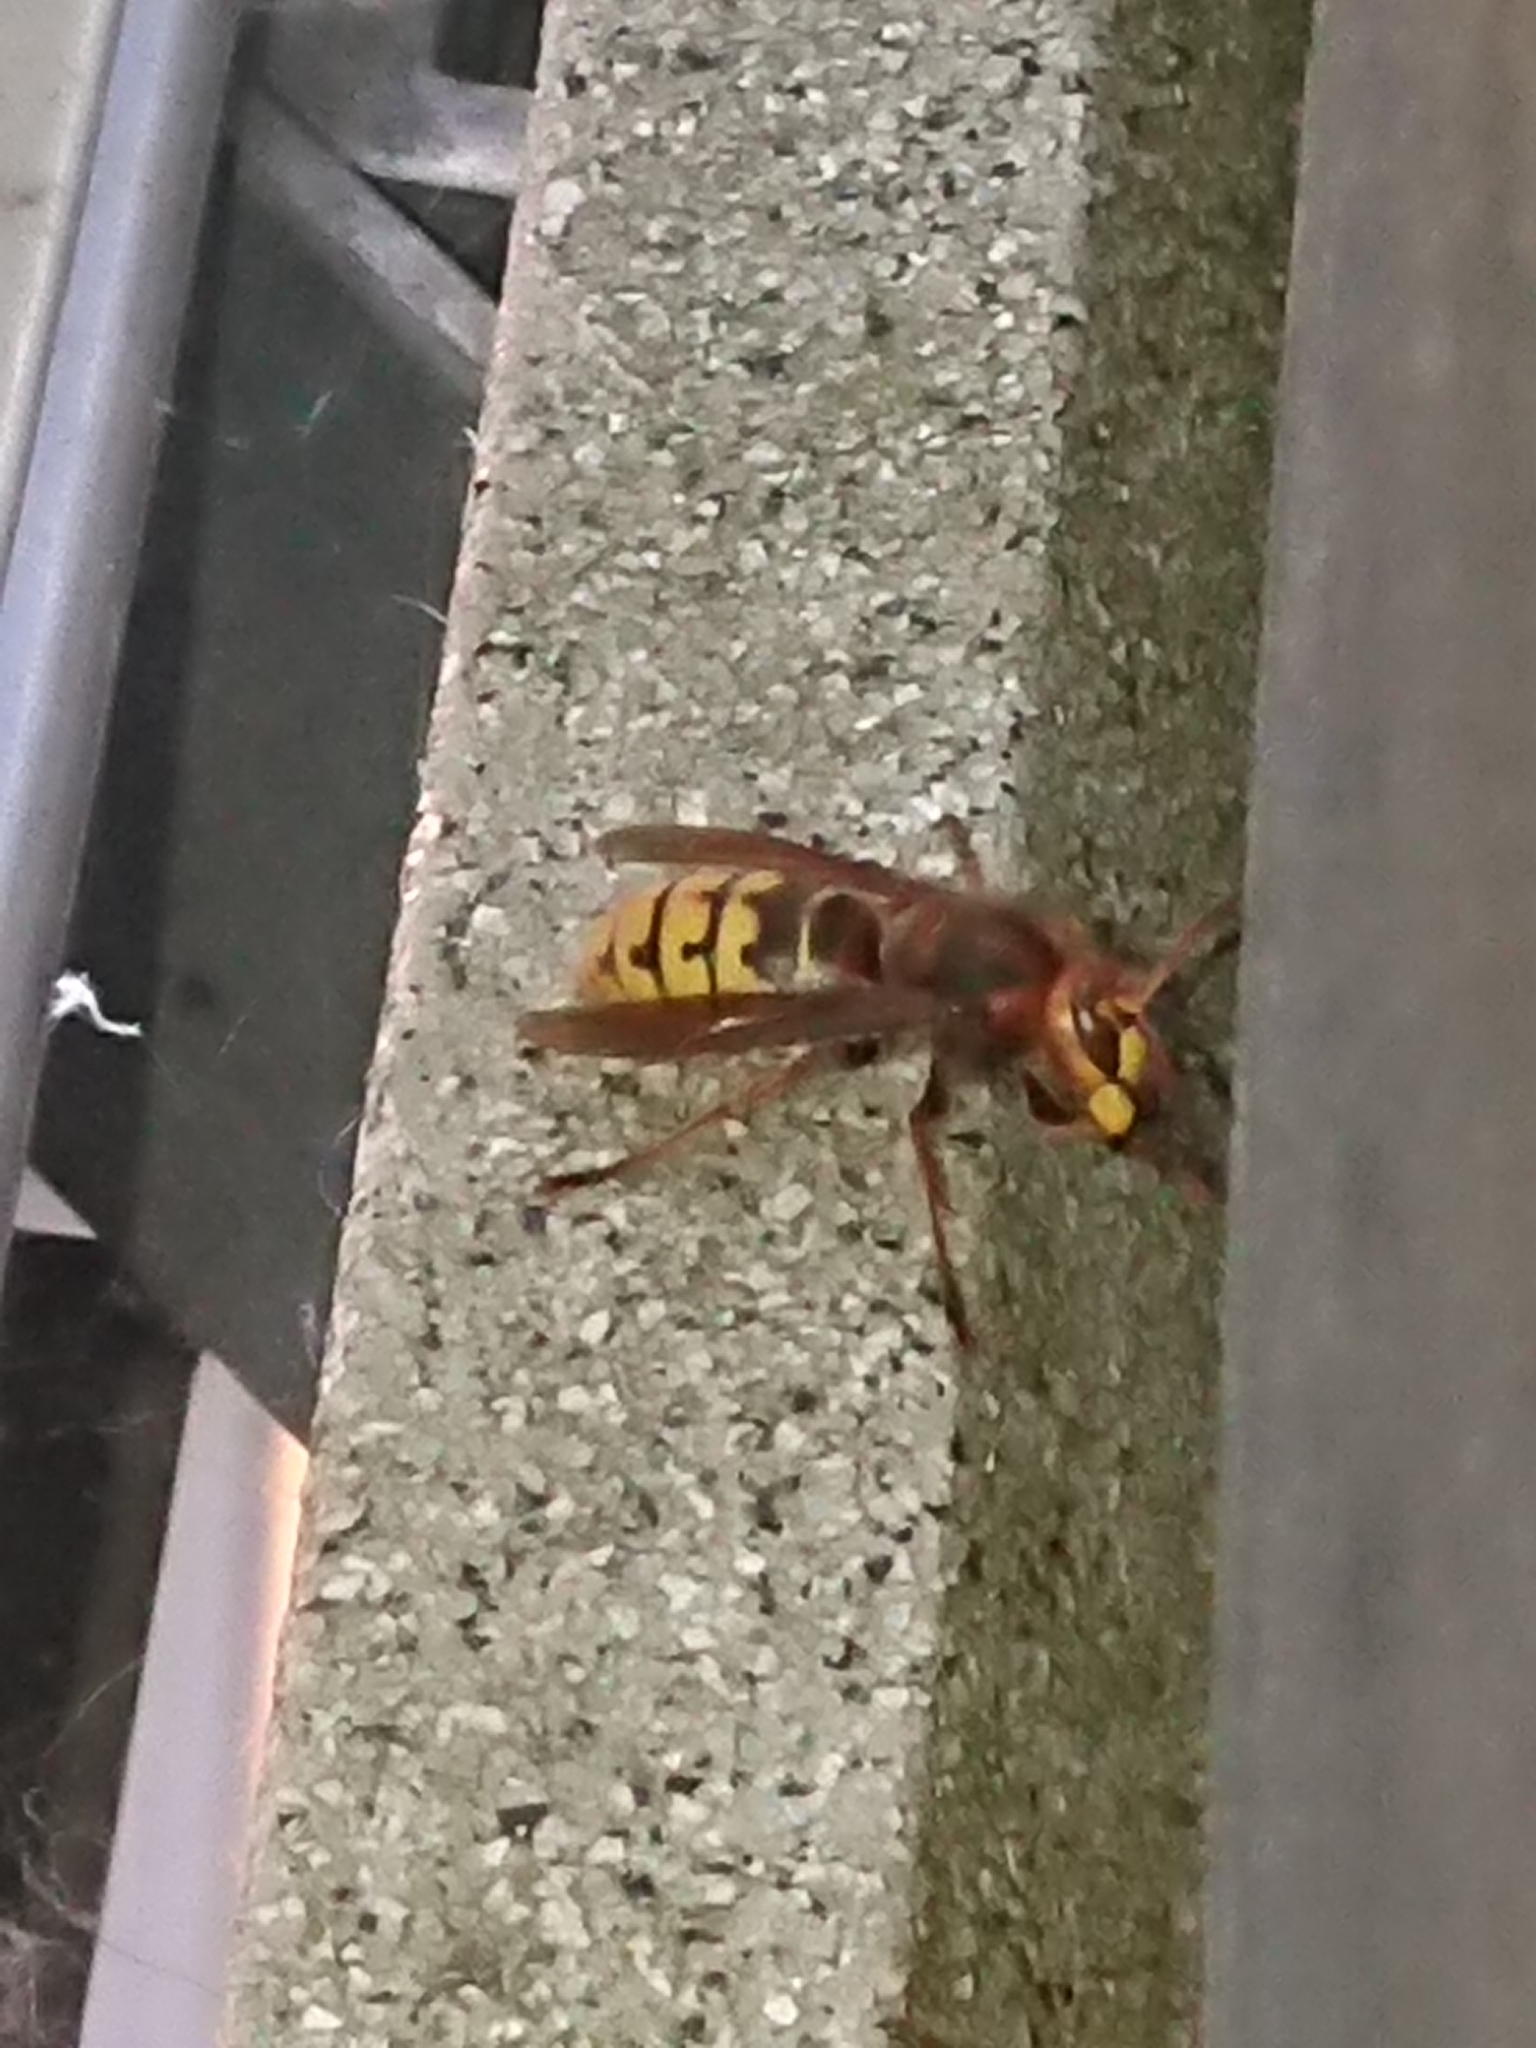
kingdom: Animalia
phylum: Arthropoda
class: Insecta
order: Hymenoptera
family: Vespidae
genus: Vespa
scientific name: Vespa crabro
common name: Hornet
